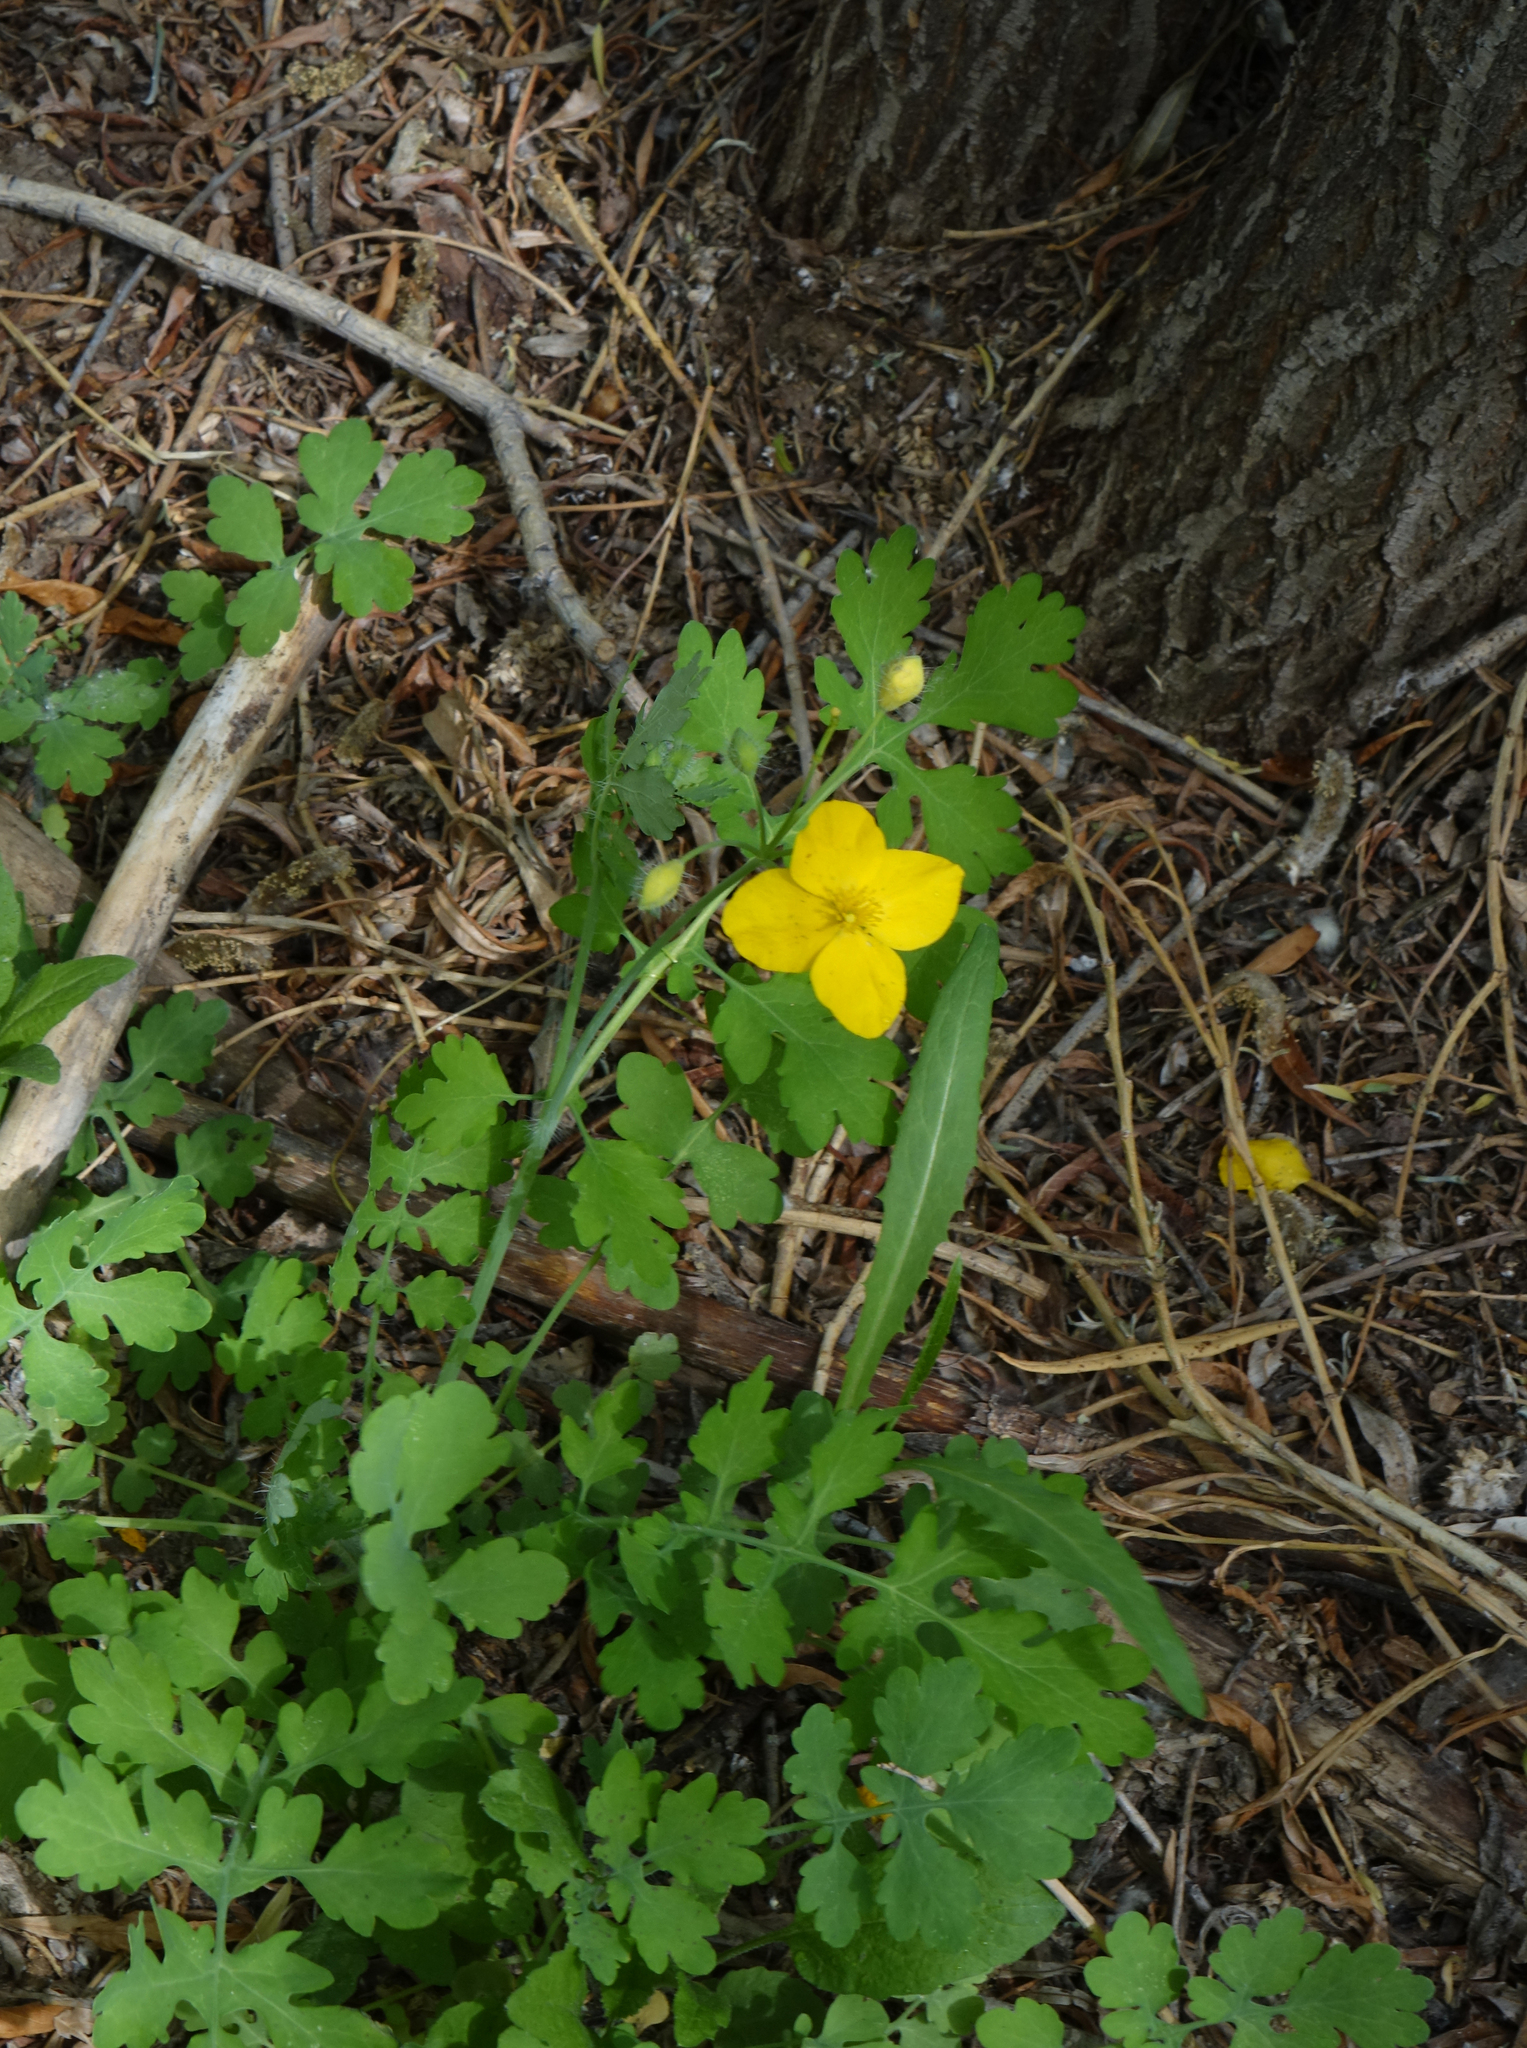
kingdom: Plantae
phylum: Tracheophyta
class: Magnoliopsida
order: Ranunculales
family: Papaveraceae
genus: Chelidonium
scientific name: Chelidonium majus
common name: Greater celandine
